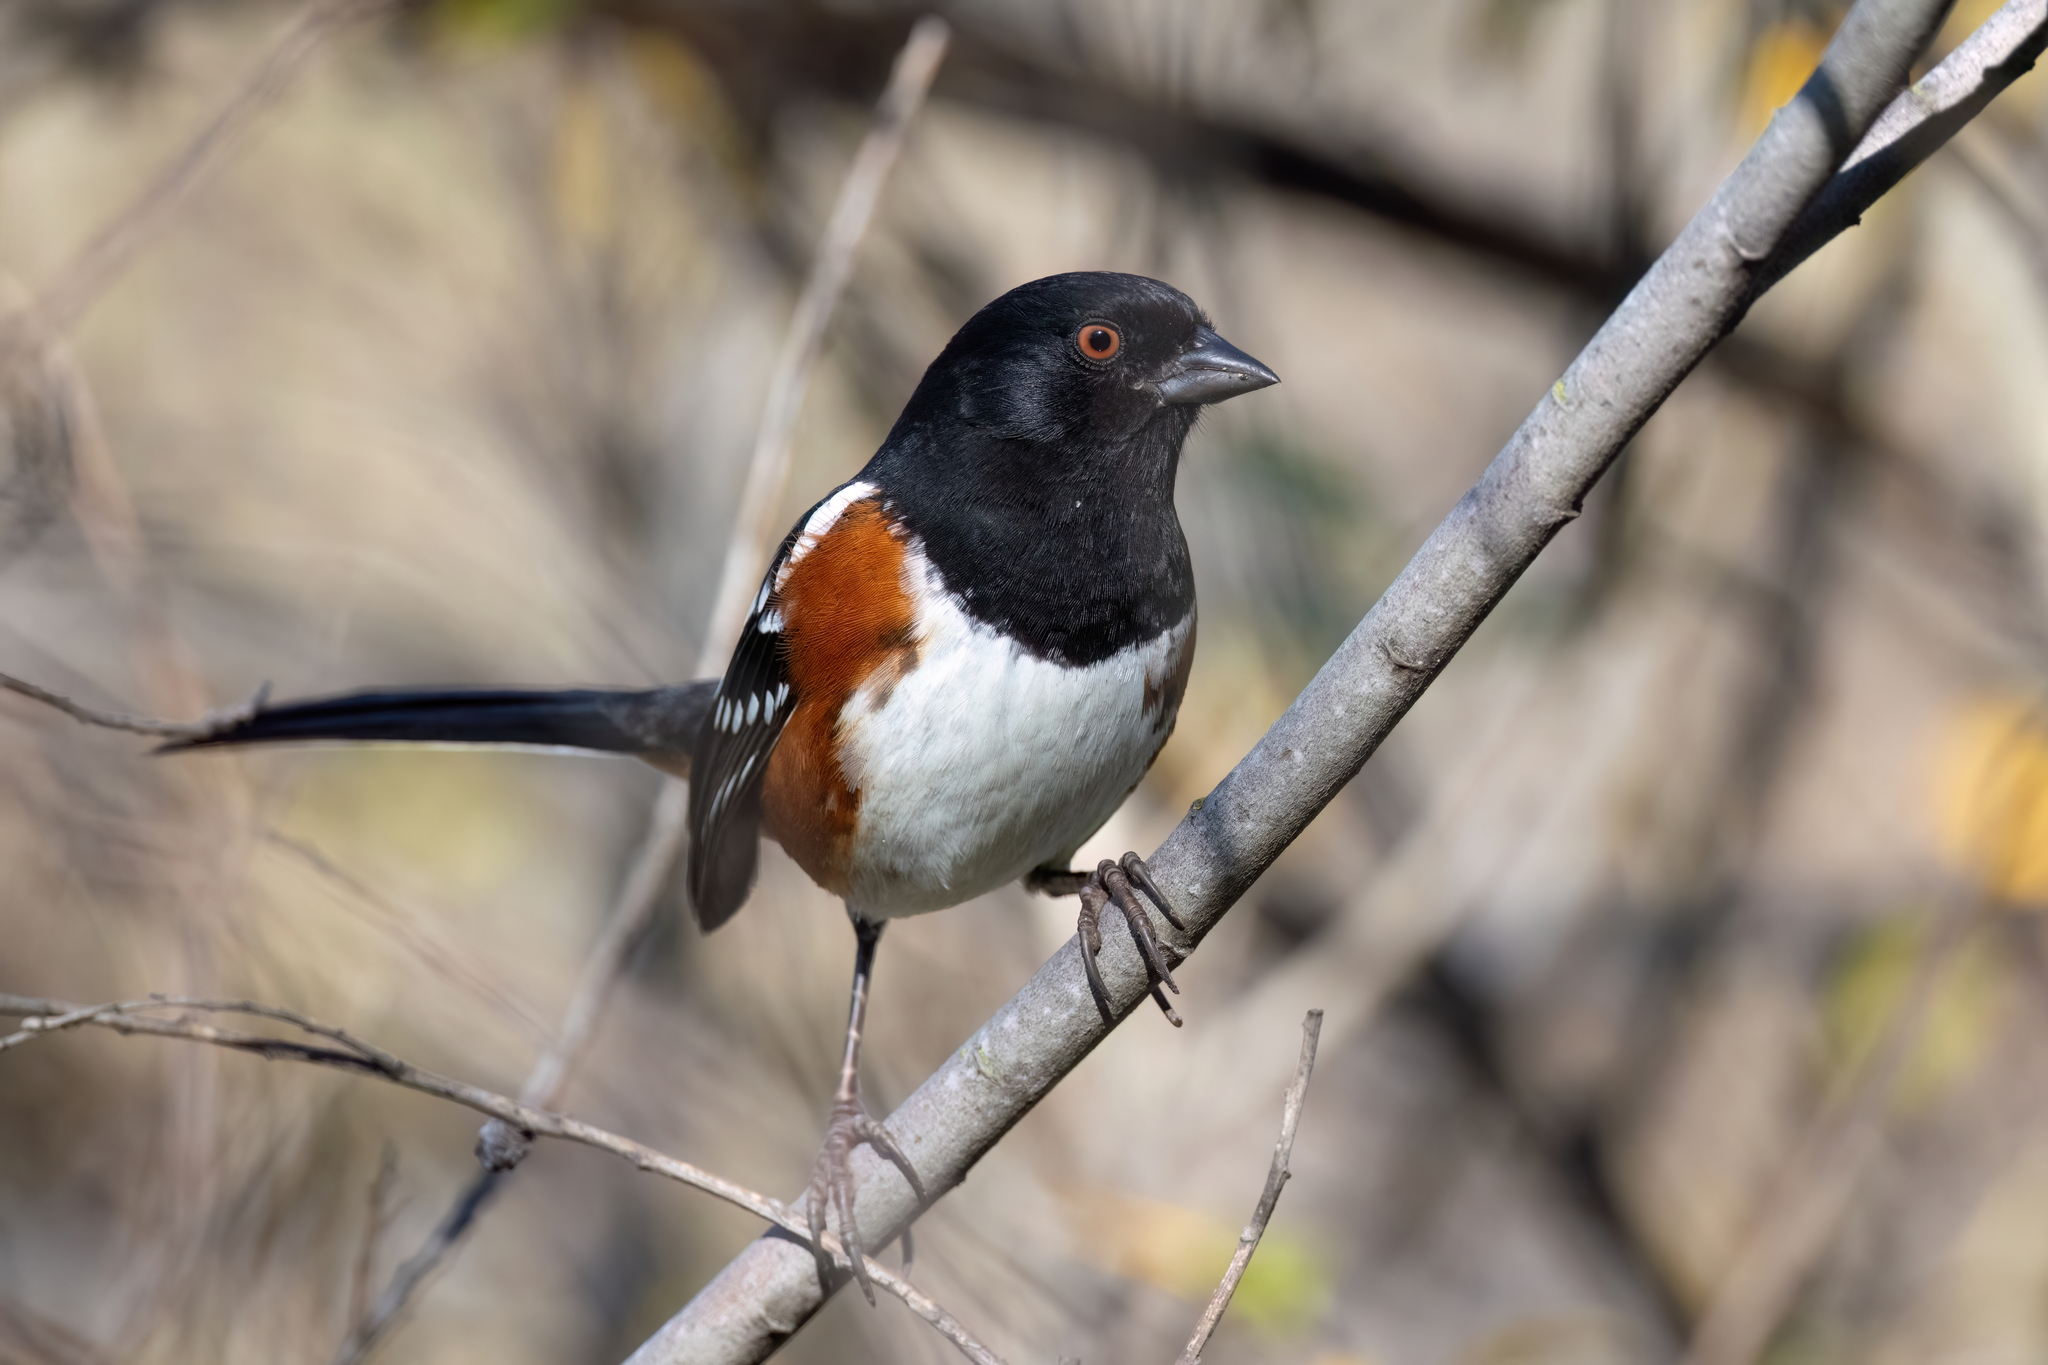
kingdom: Animalia
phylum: Chordata
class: Aves
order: Passeriformes
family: Passerellidae
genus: Pipilo
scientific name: Pipilo maculatus
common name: Spotted towhee
